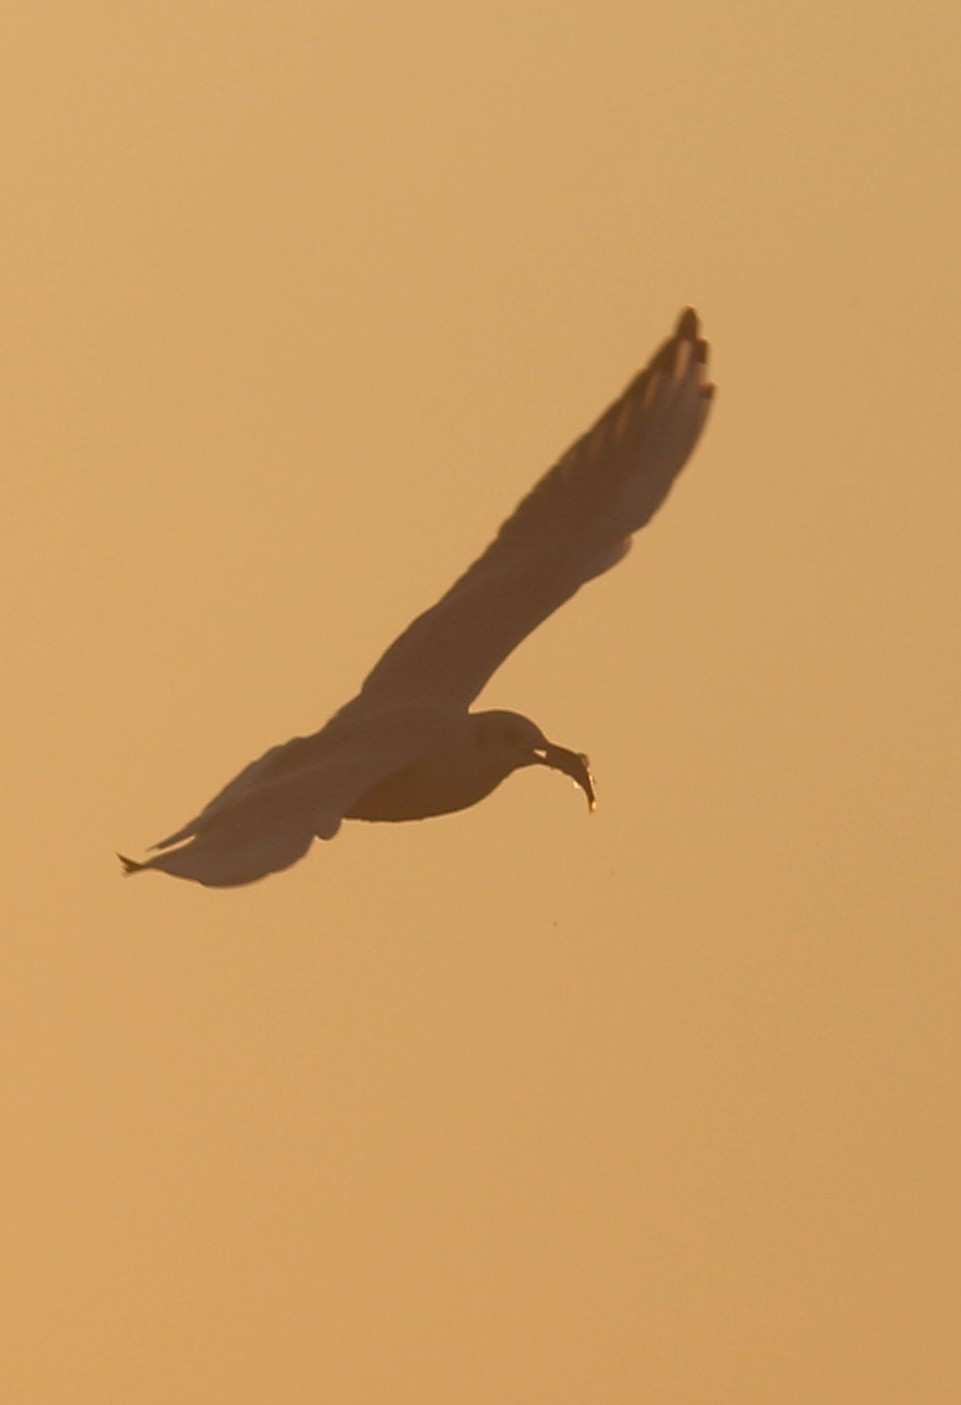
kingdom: Animalia
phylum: Chordata
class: Aves
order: Charadriiformes
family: Laridae
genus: Chroicocephalus
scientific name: Chroicocephalus ridibundus
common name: Black-headed gull
